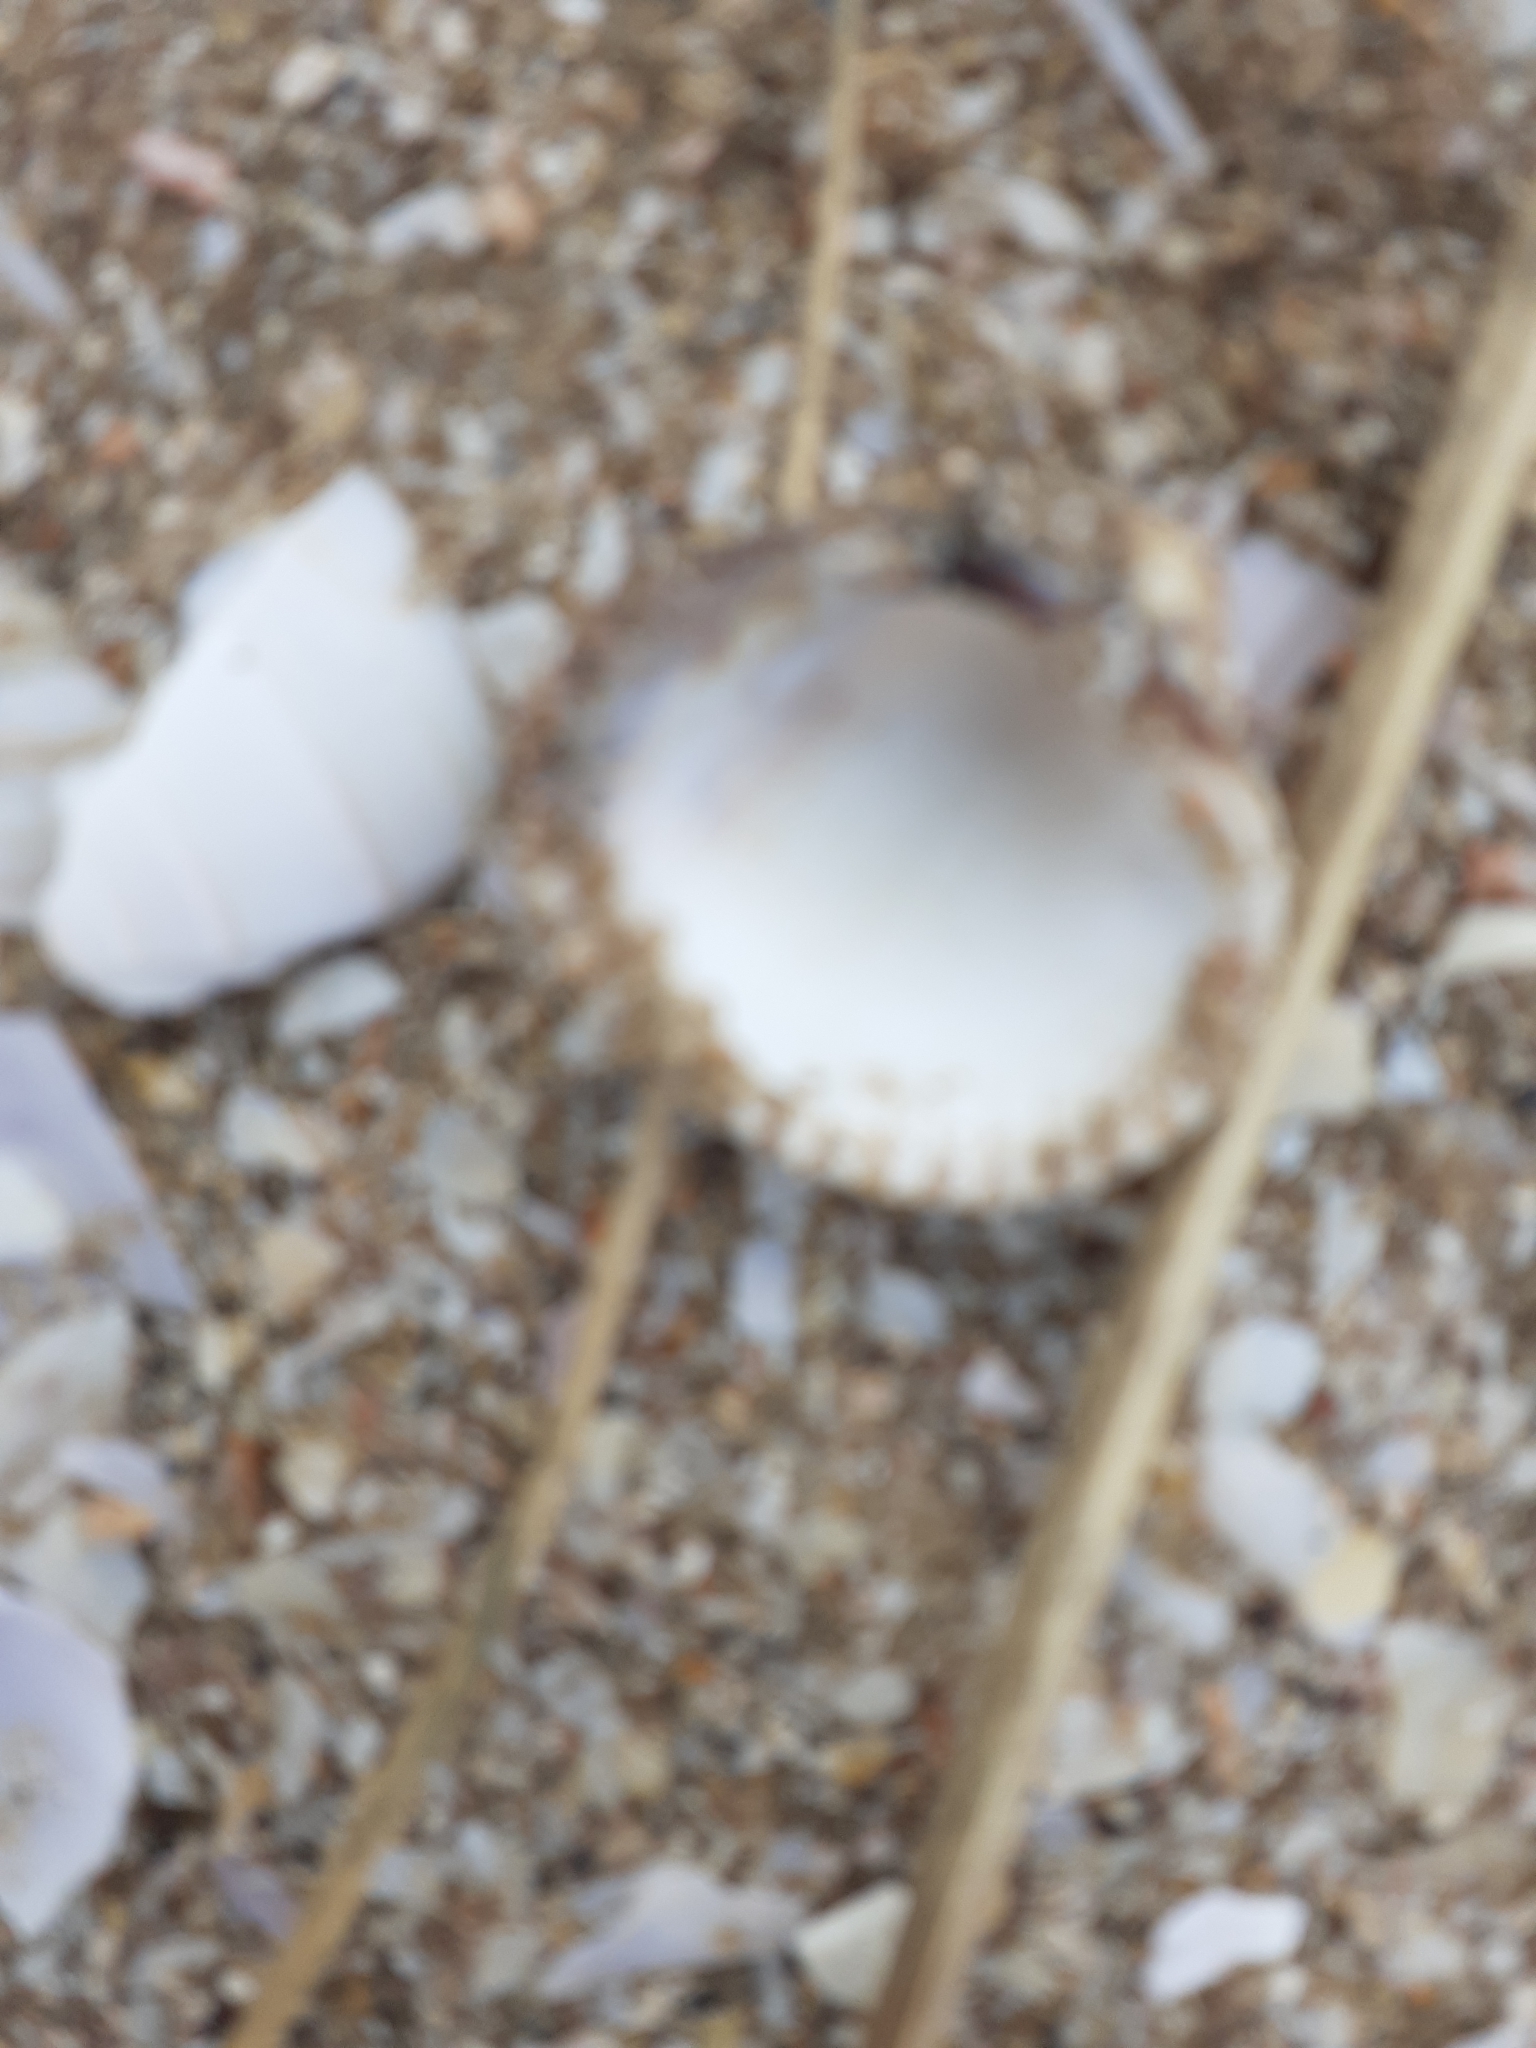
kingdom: Animalia
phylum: Mollusca
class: Bivalvia
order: Cardiida
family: Cardiidae
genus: Cerastoderma
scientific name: Cerastoderma edule
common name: Common cockle
